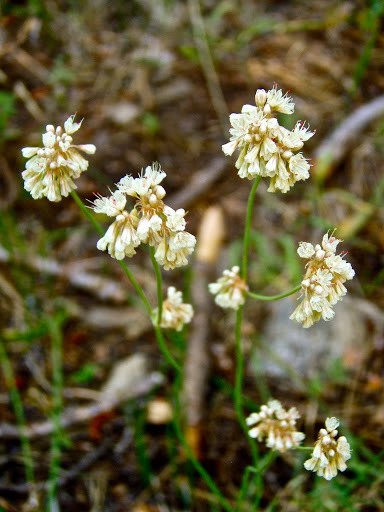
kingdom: Plantae
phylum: Tracheophyta
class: Magnoliopsida
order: Caryophyllales
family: Polygonaceae
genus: Eriogonum
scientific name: Eriogonum nudum
